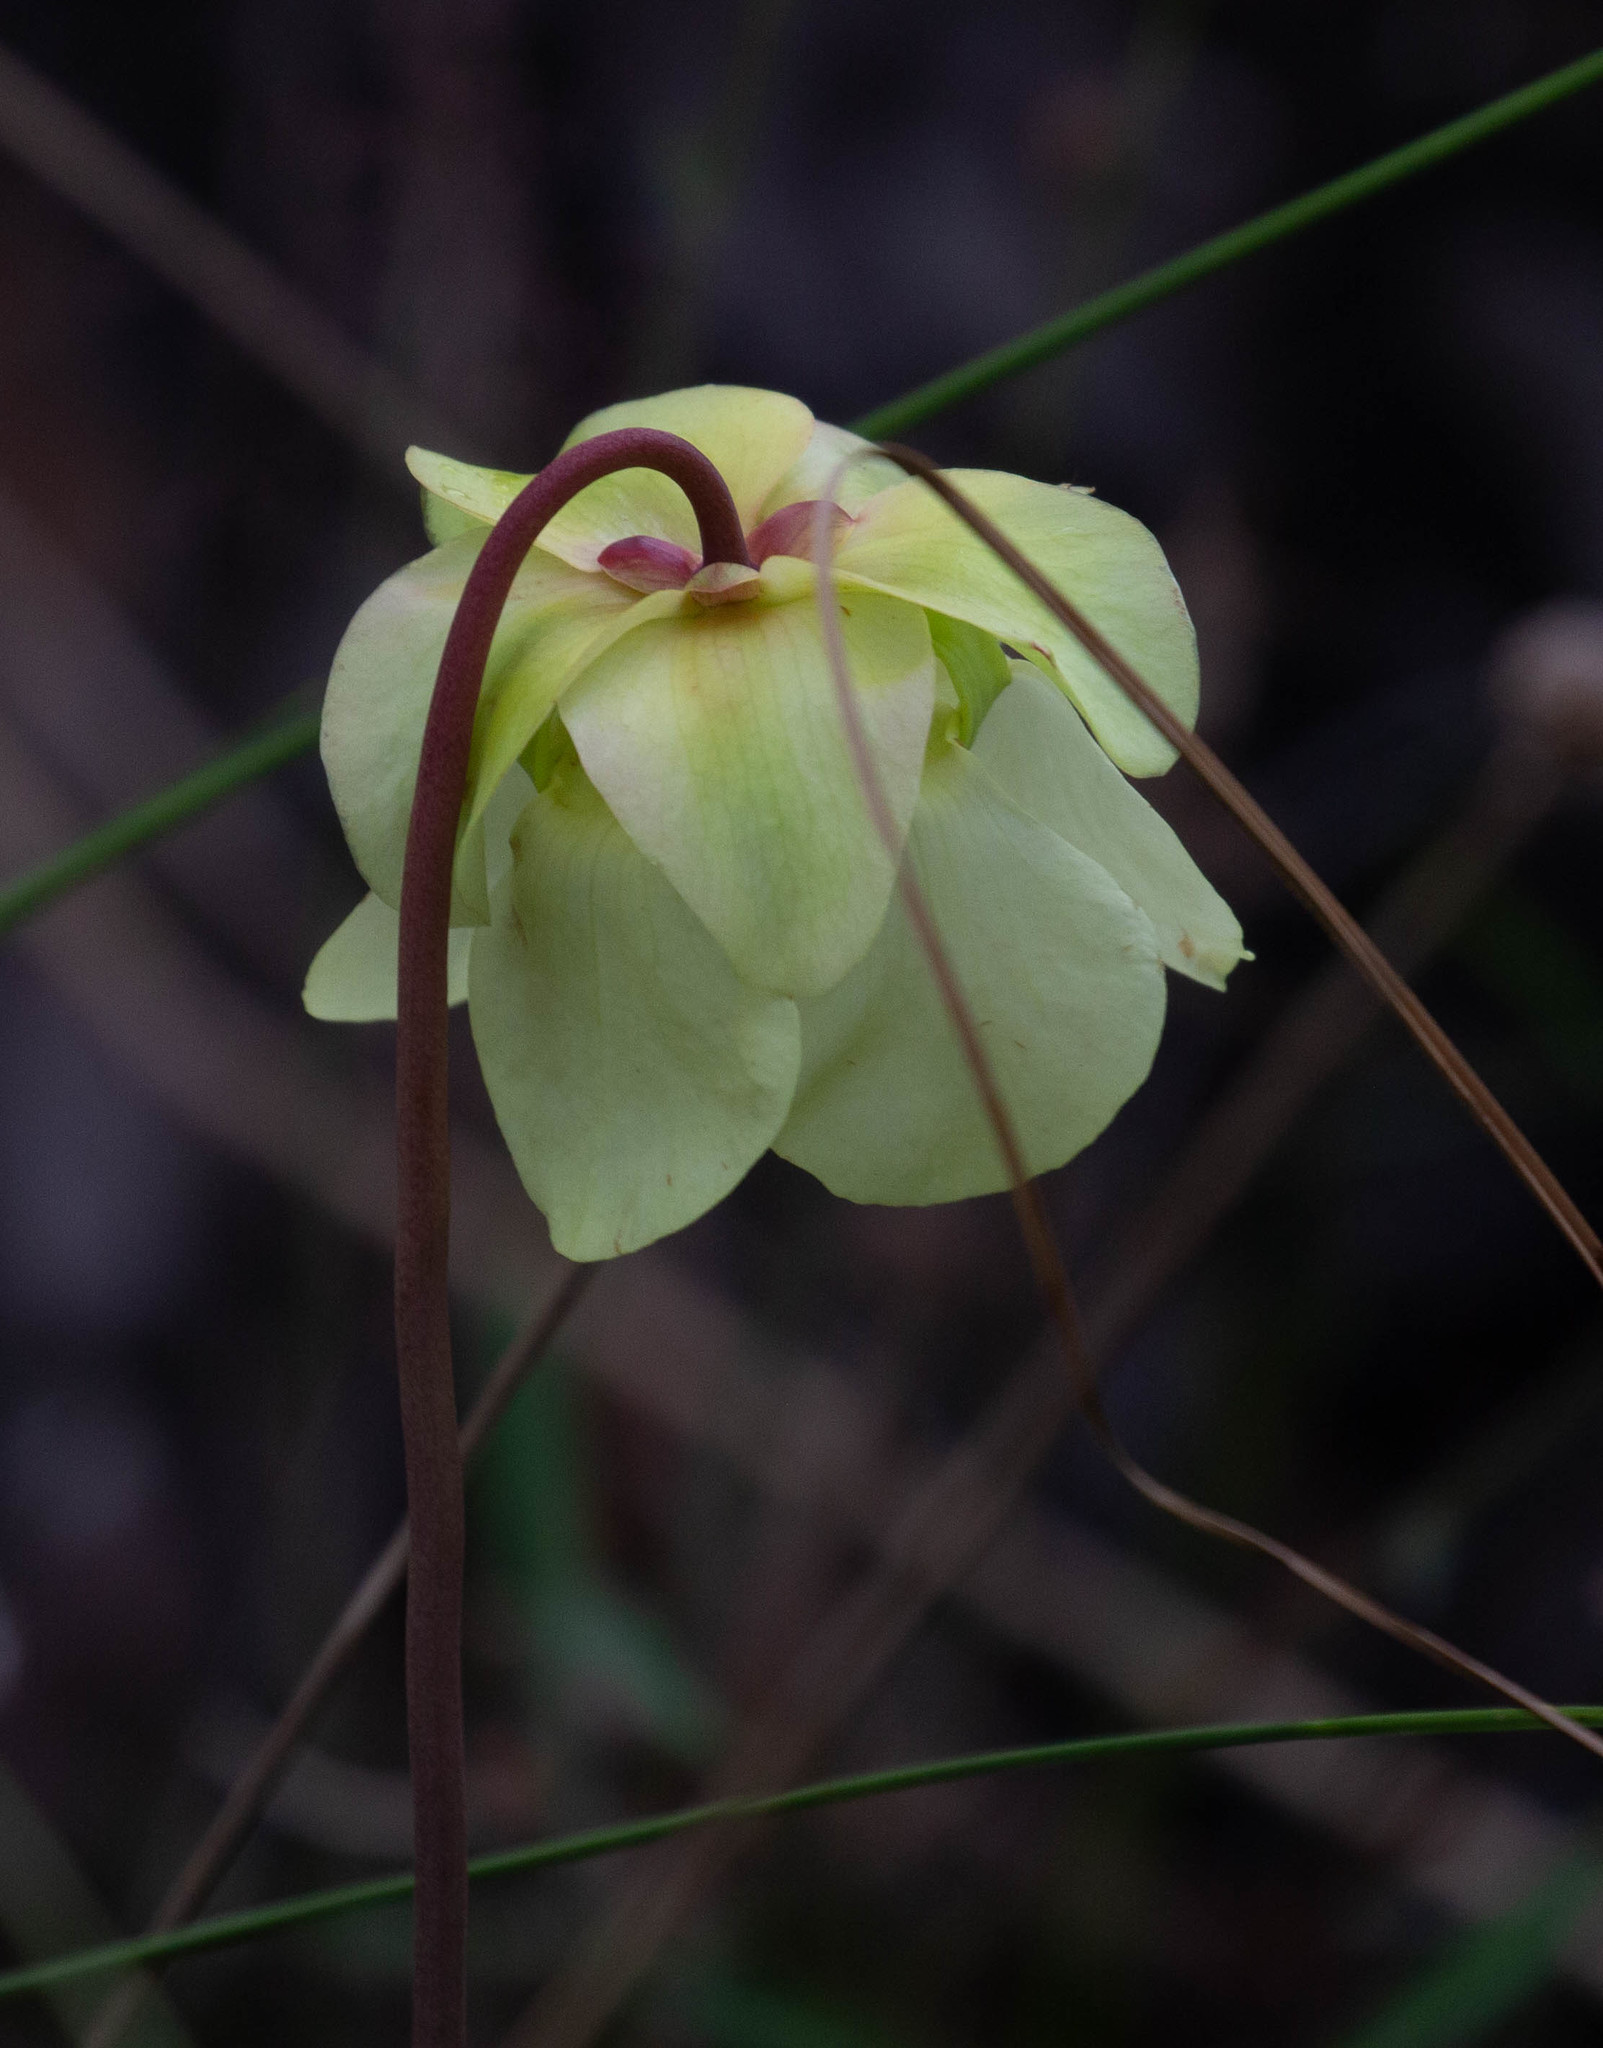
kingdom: Plantae
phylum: Tracheophyta
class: Magnoliopsida
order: Ericales
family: Sarraceniaceae
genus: Sarracenia
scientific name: Sarracenia alata
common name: Yellow trumpets
